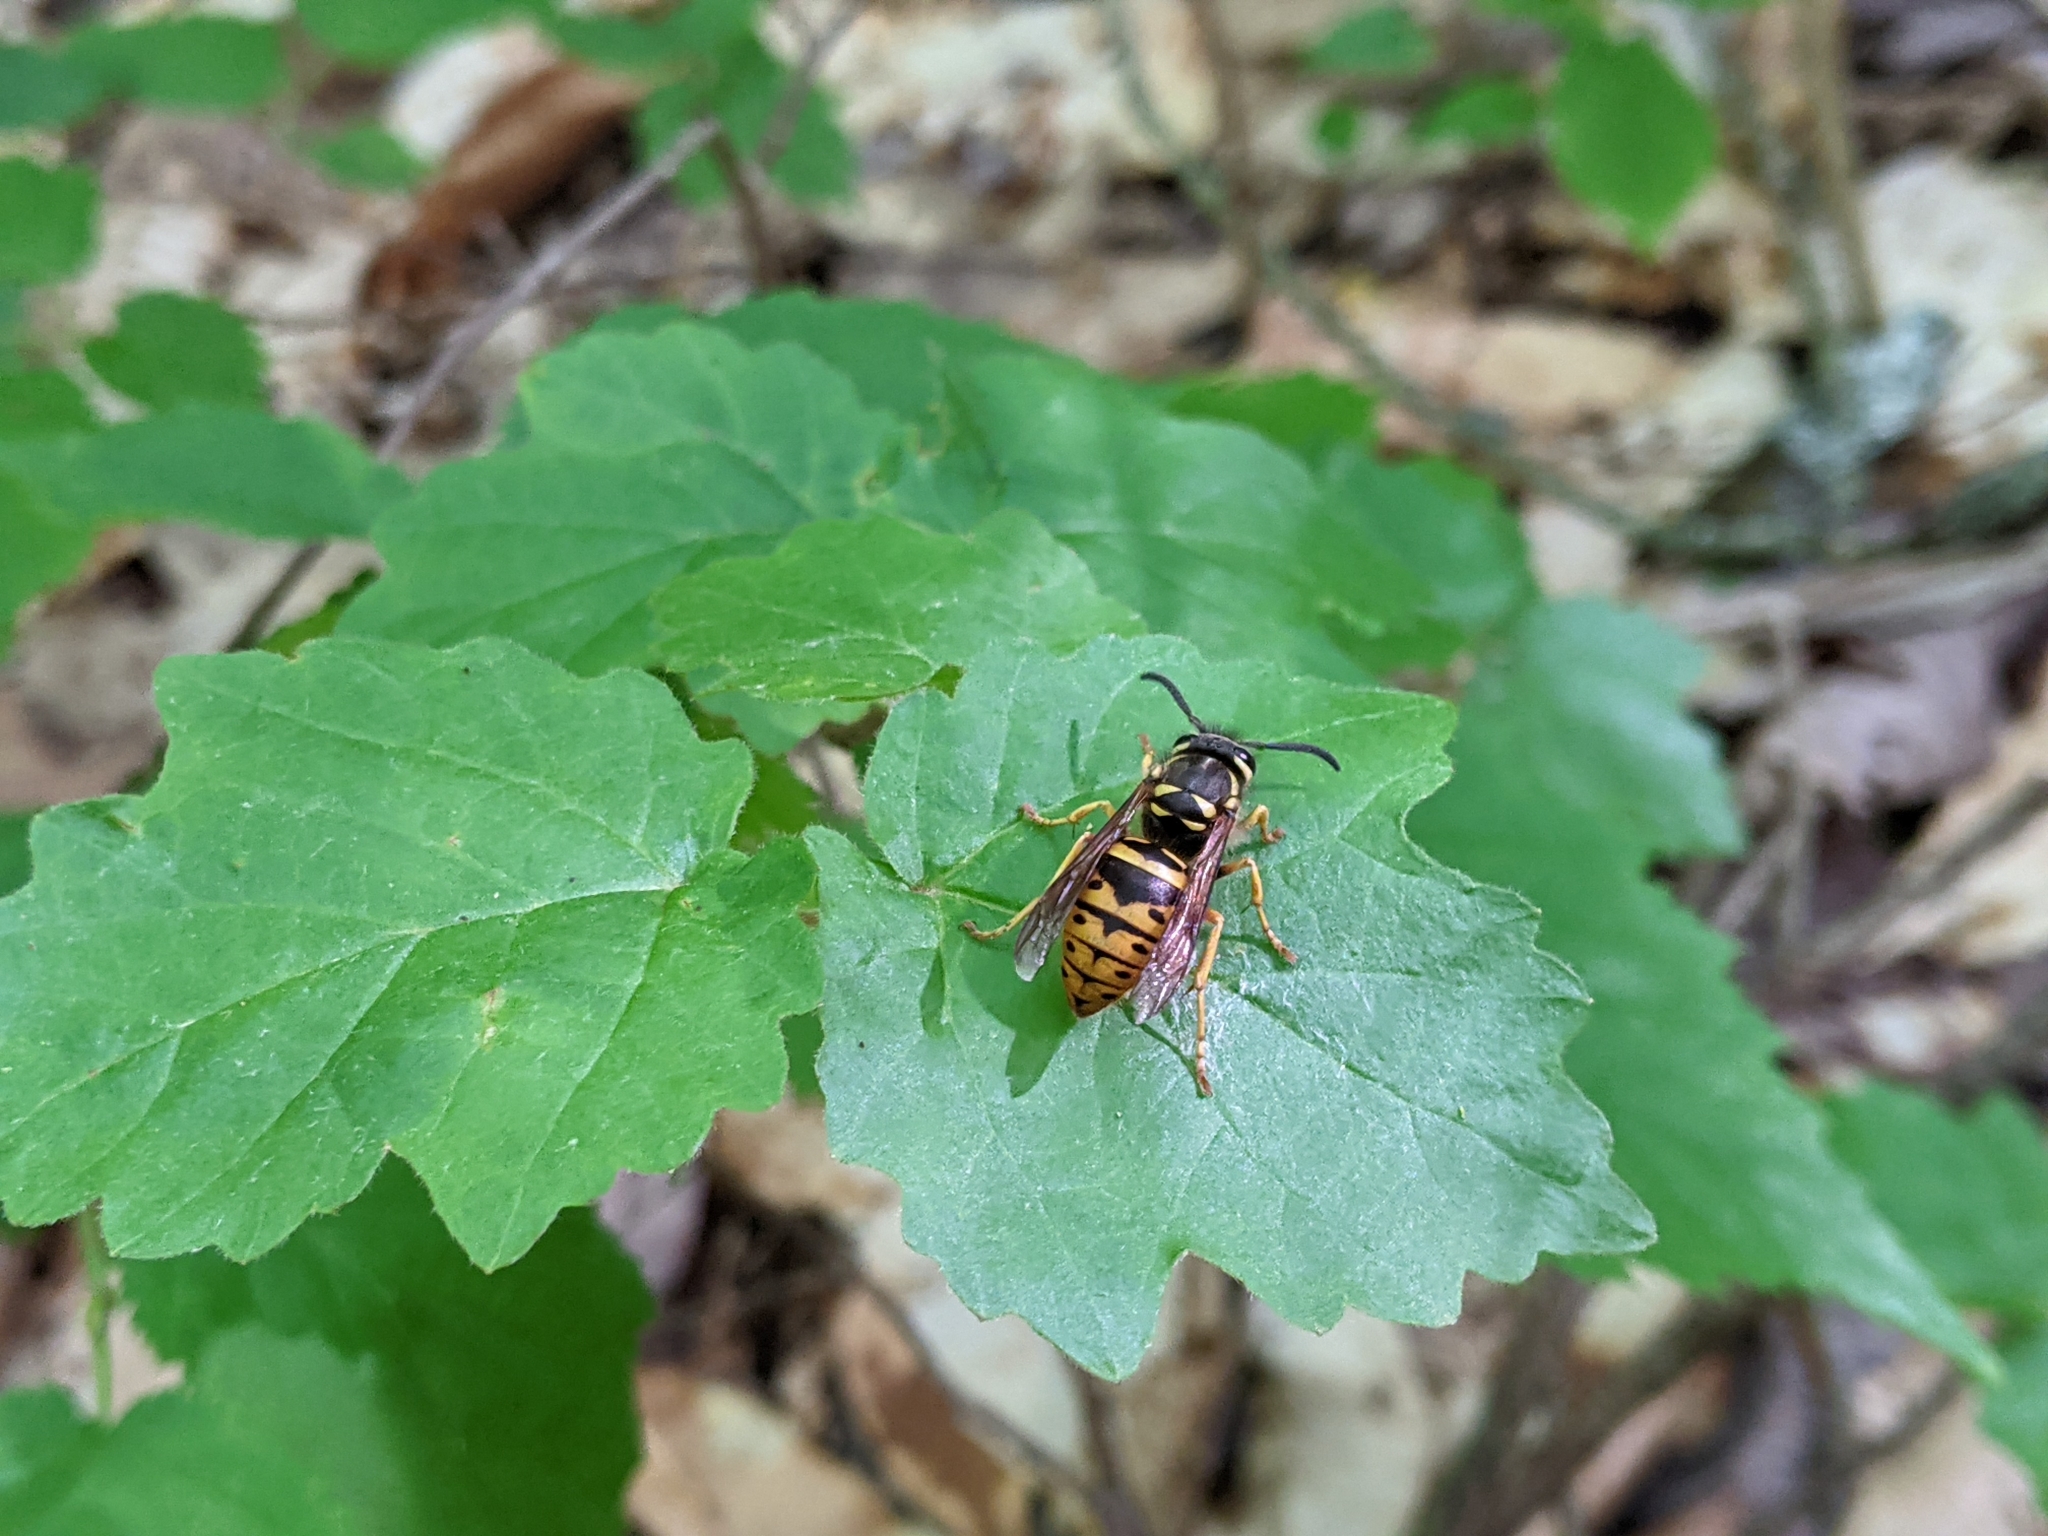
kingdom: Animalia
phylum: Arthropoda
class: Insecta
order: Hymenoptera
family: Vespidae
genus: Vespula
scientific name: Vespula maculifrons
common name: Eastern yellowjacket
